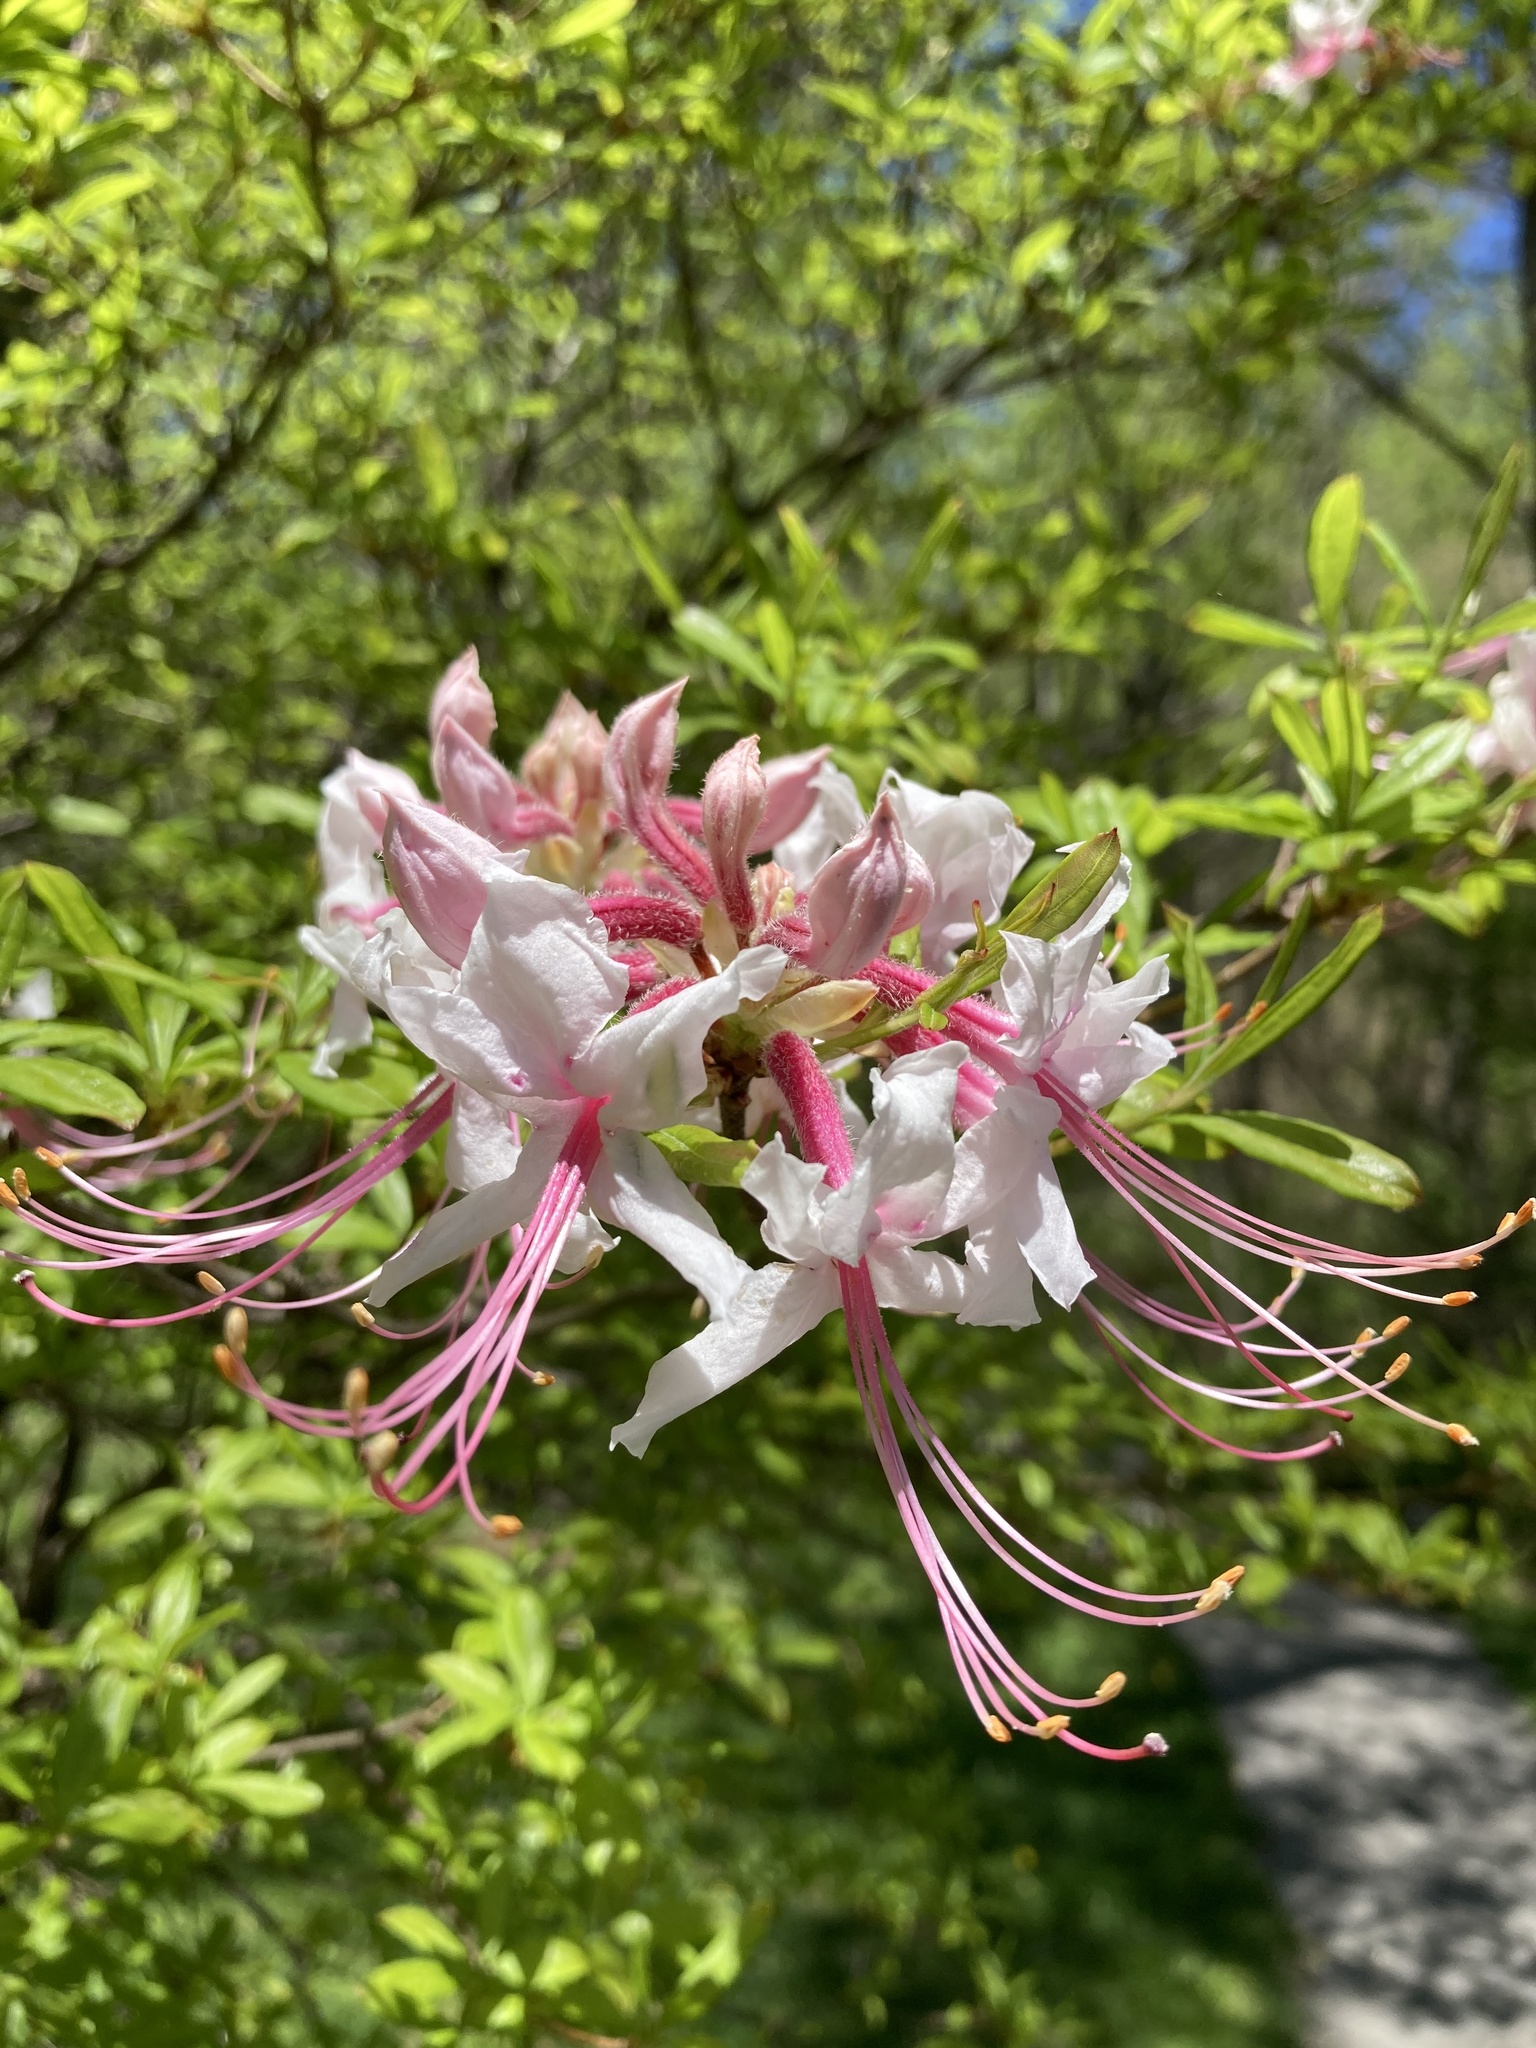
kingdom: Plantae
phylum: Tracheophyta
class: Magnoliopsida
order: Ericales
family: Ericaceae
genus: Rhododendron
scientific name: Rhododendron periclymenoides
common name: Election-pink
